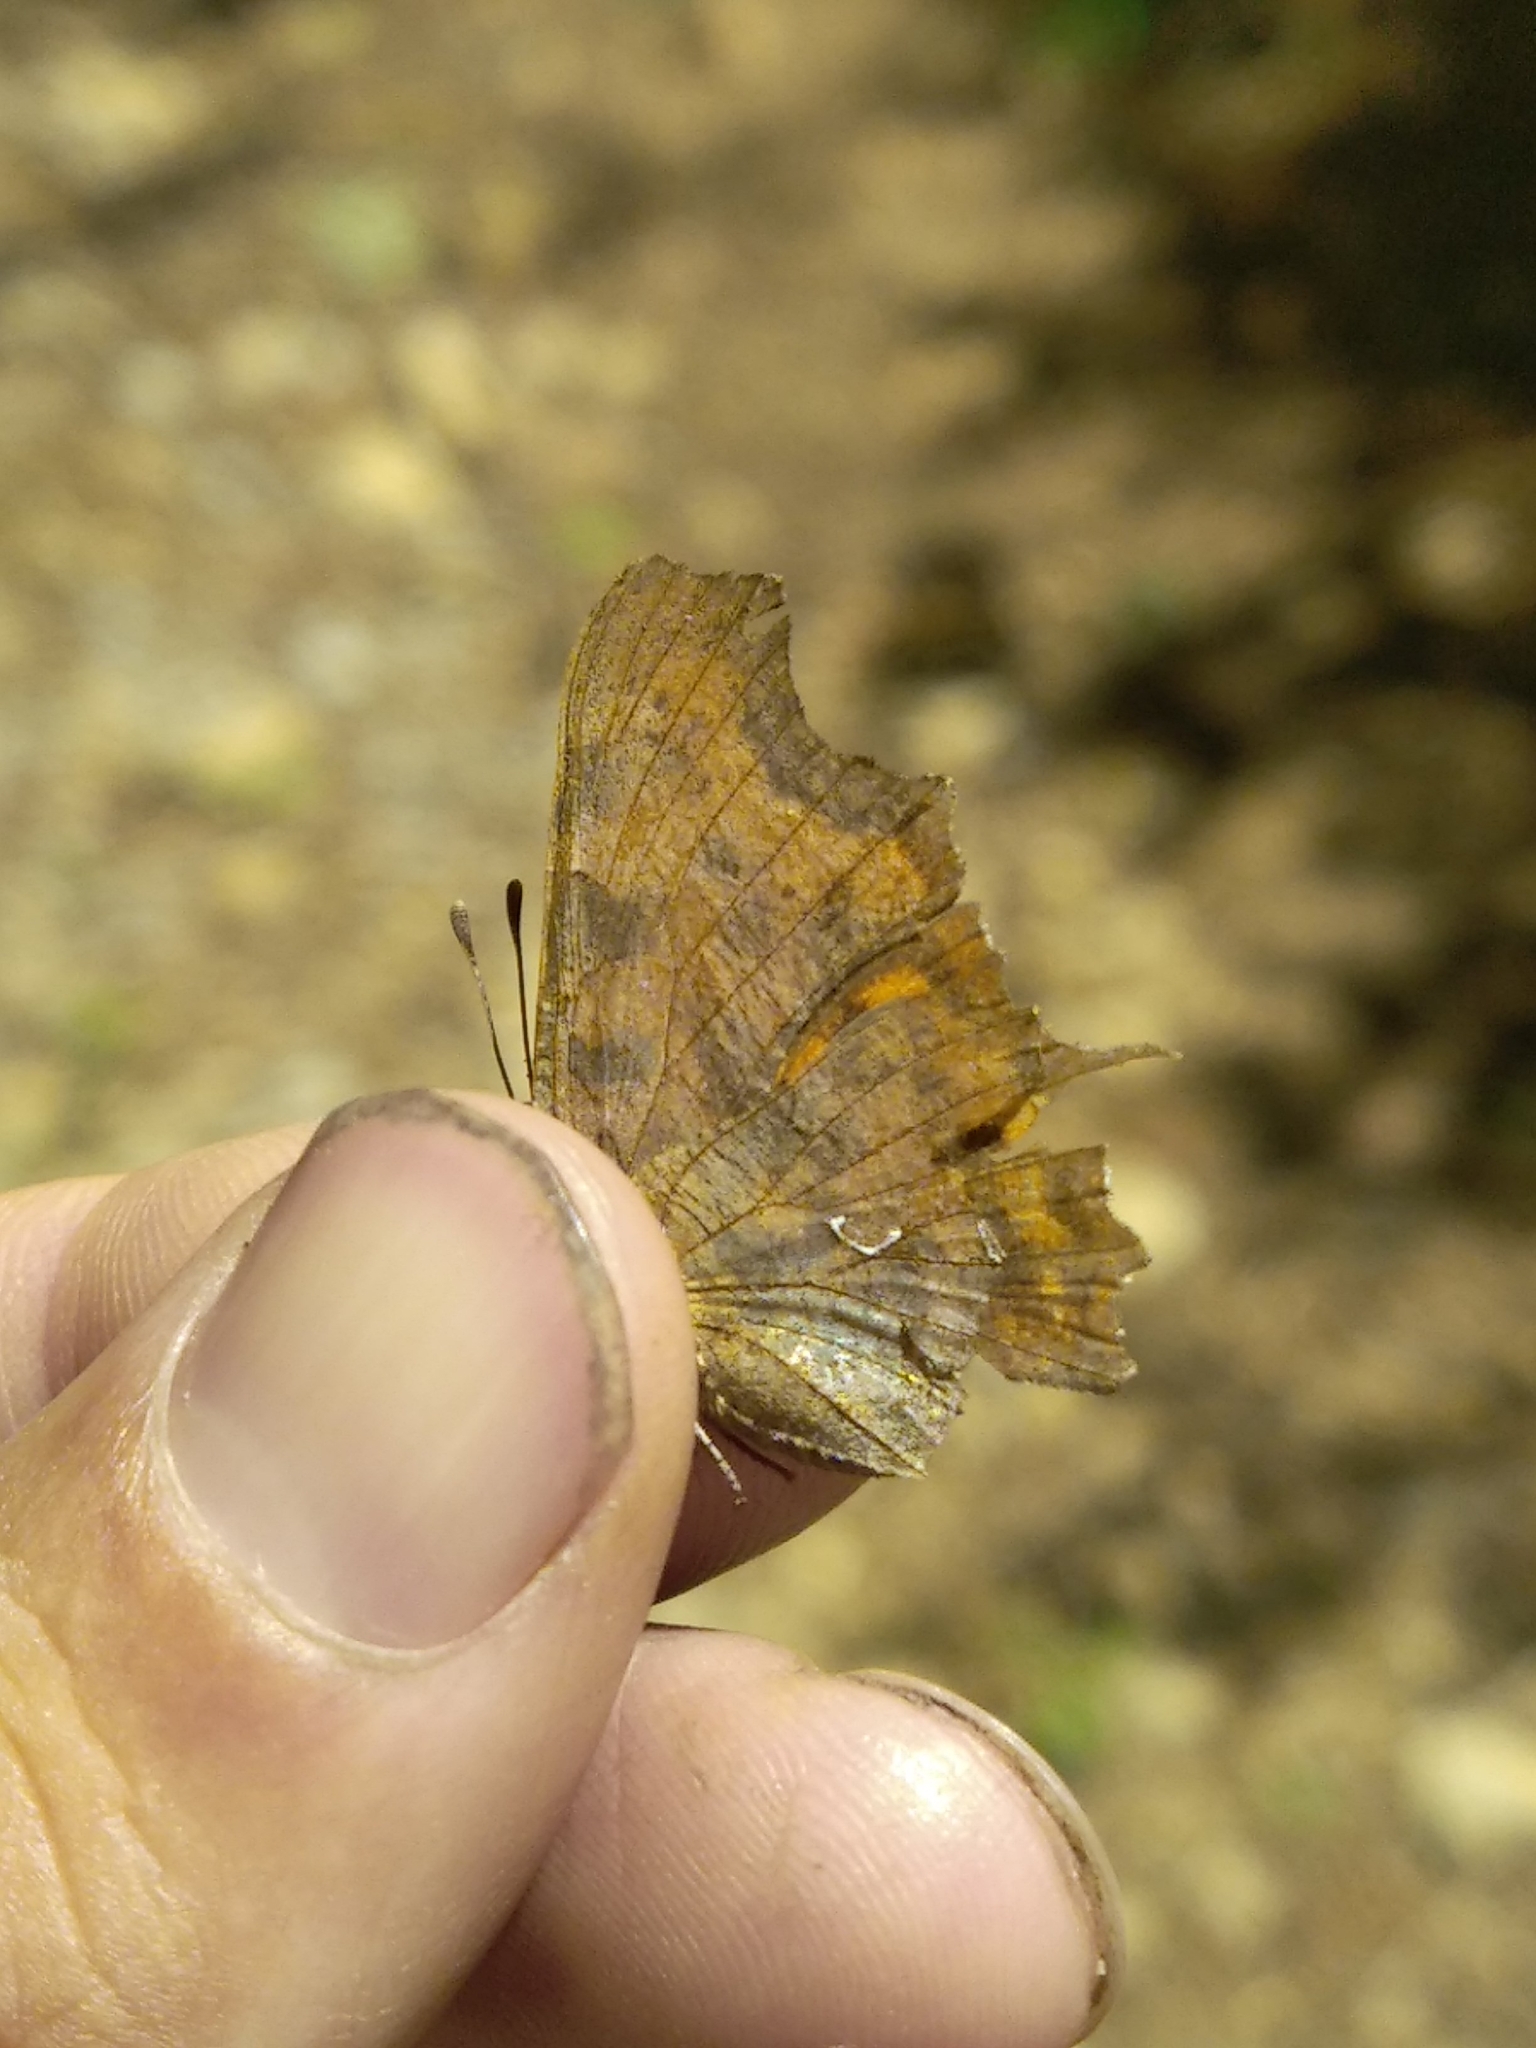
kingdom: Animalia
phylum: Arthropoda
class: Insecta
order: Lepidoptera
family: Nymphalidae
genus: Polygonia
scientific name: Polygonia c-album
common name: Comma
